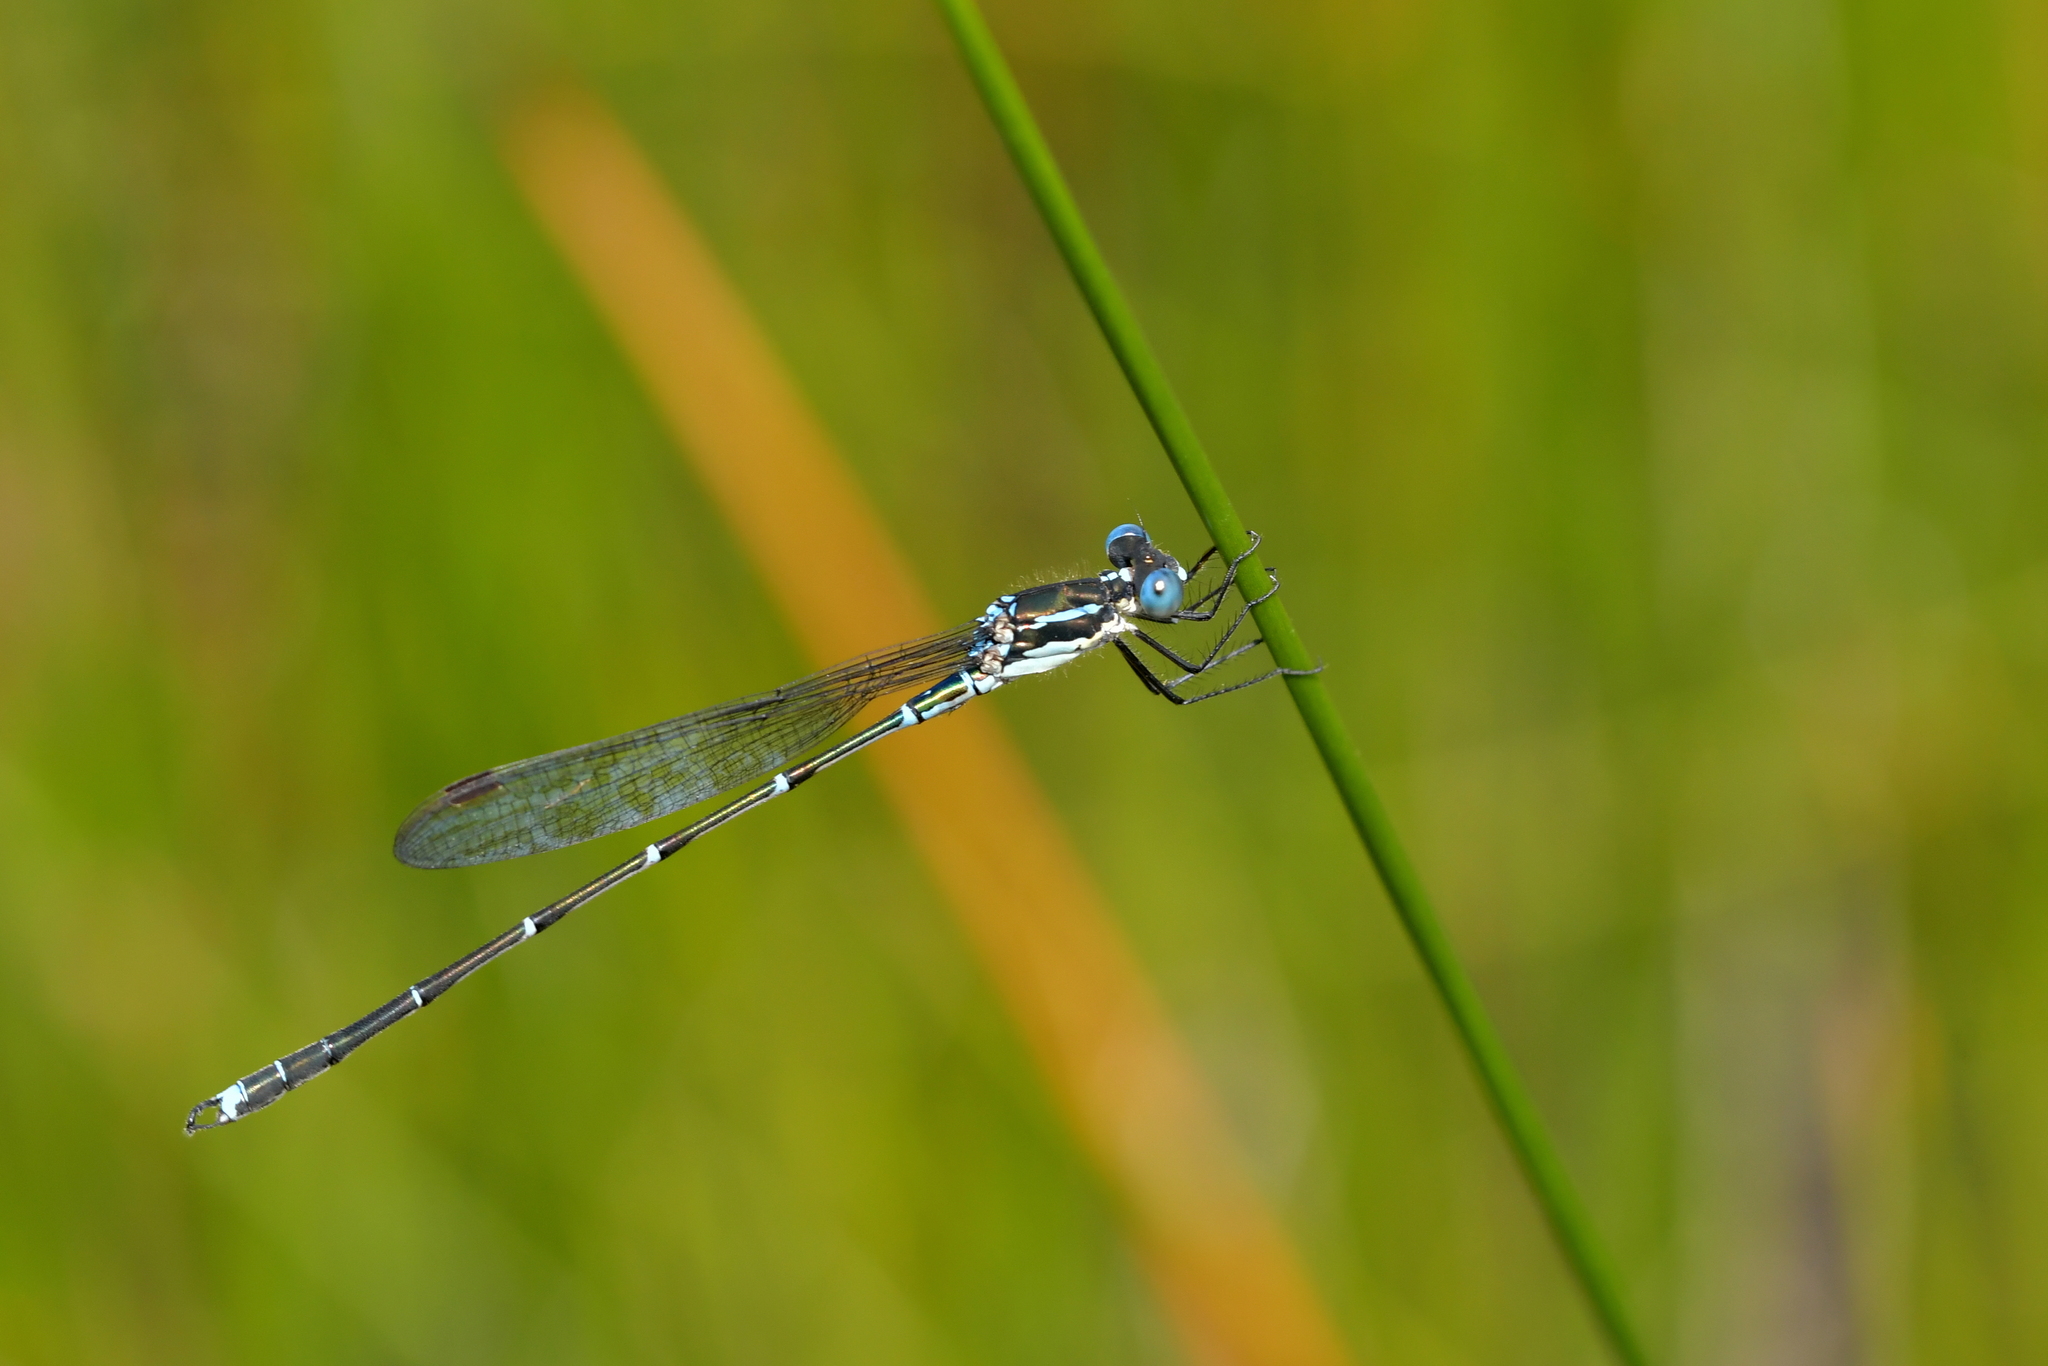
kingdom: Animalia
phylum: Arthropoda
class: Insecta
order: Odonata
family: Lestidae
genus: Austrolestes
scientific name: Austrolestes colensonis
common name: Blue damselfly
